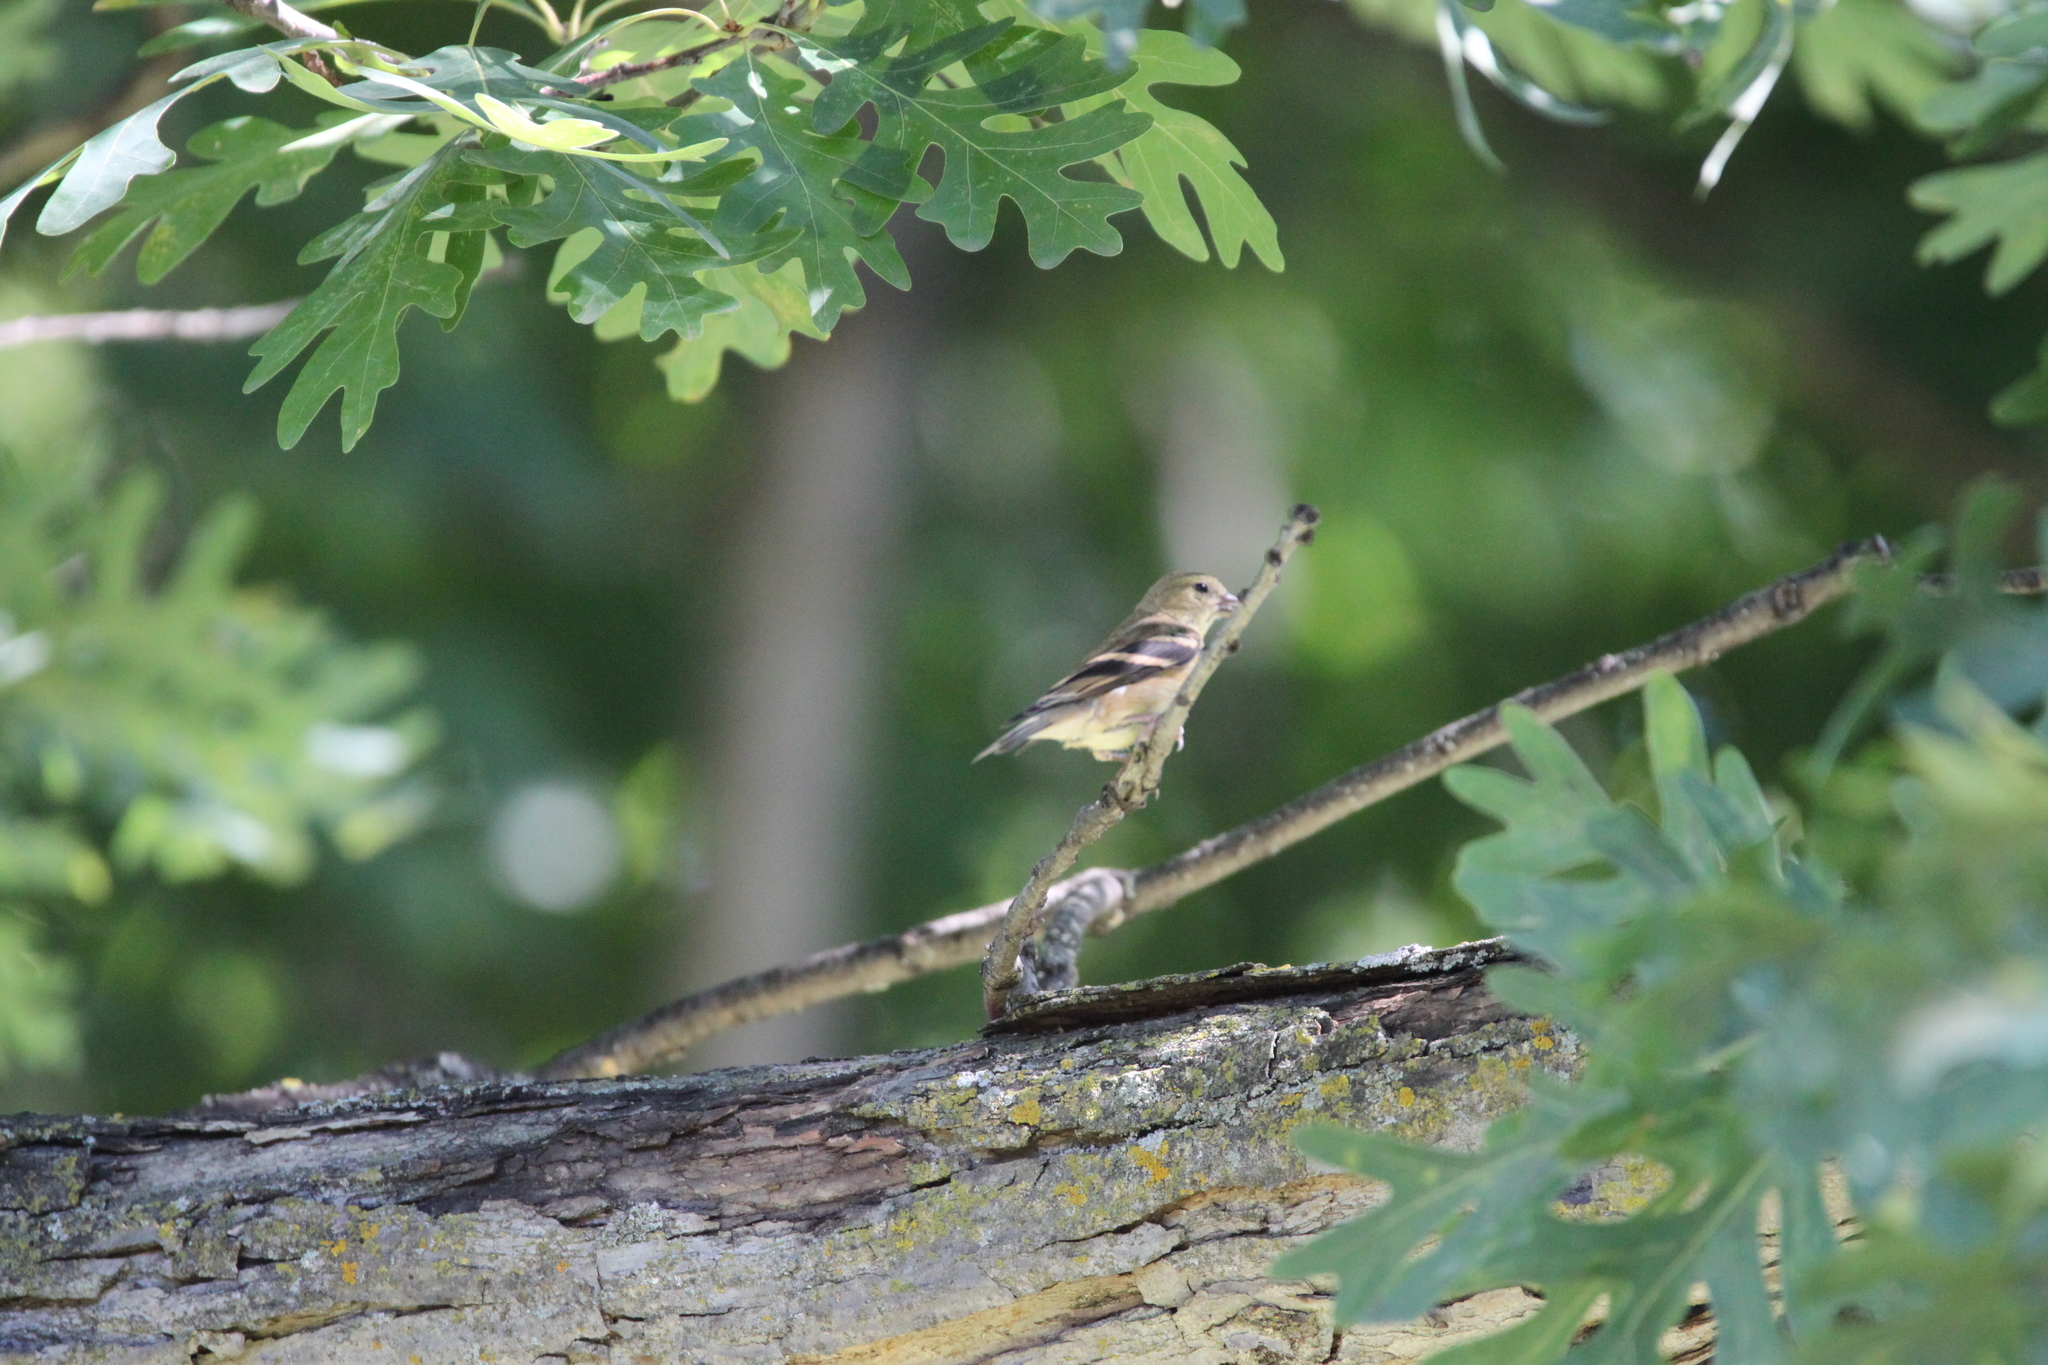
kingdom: Animalia
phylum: Chordata
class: Aves
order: Passeriformes
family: Fringillidae
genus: Spinus
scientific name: Spinus tristis
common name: American goldfinch
